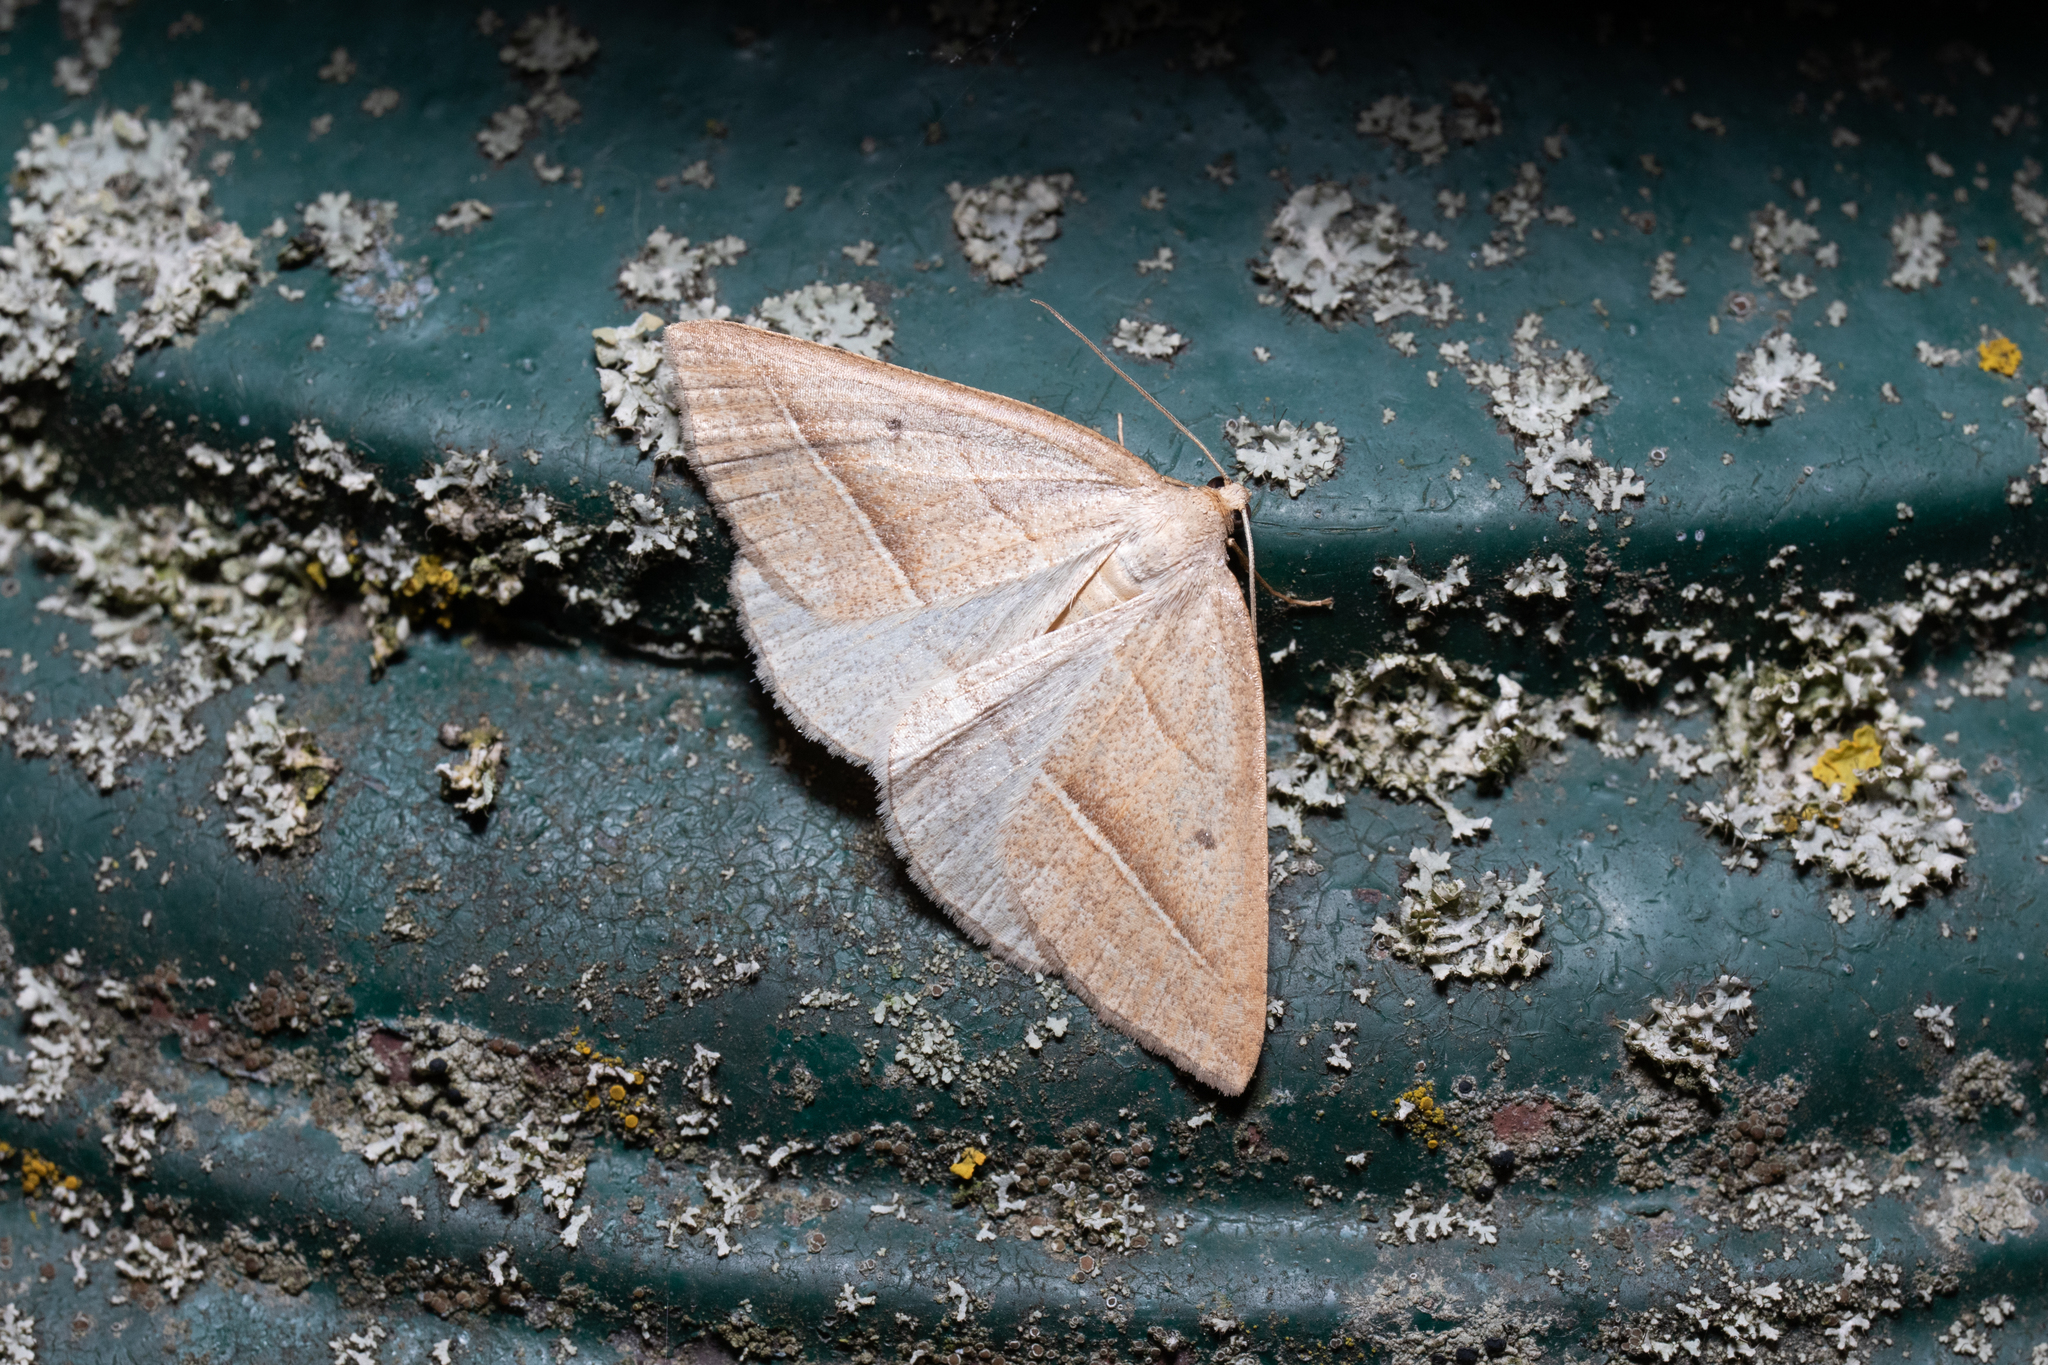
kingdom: Animalia
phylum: Arthropoda
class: Insecta
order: Lepidoptera
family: Pterophoridae
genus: Pterophorus
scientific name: Pterophorus Petrophora chlorosata
